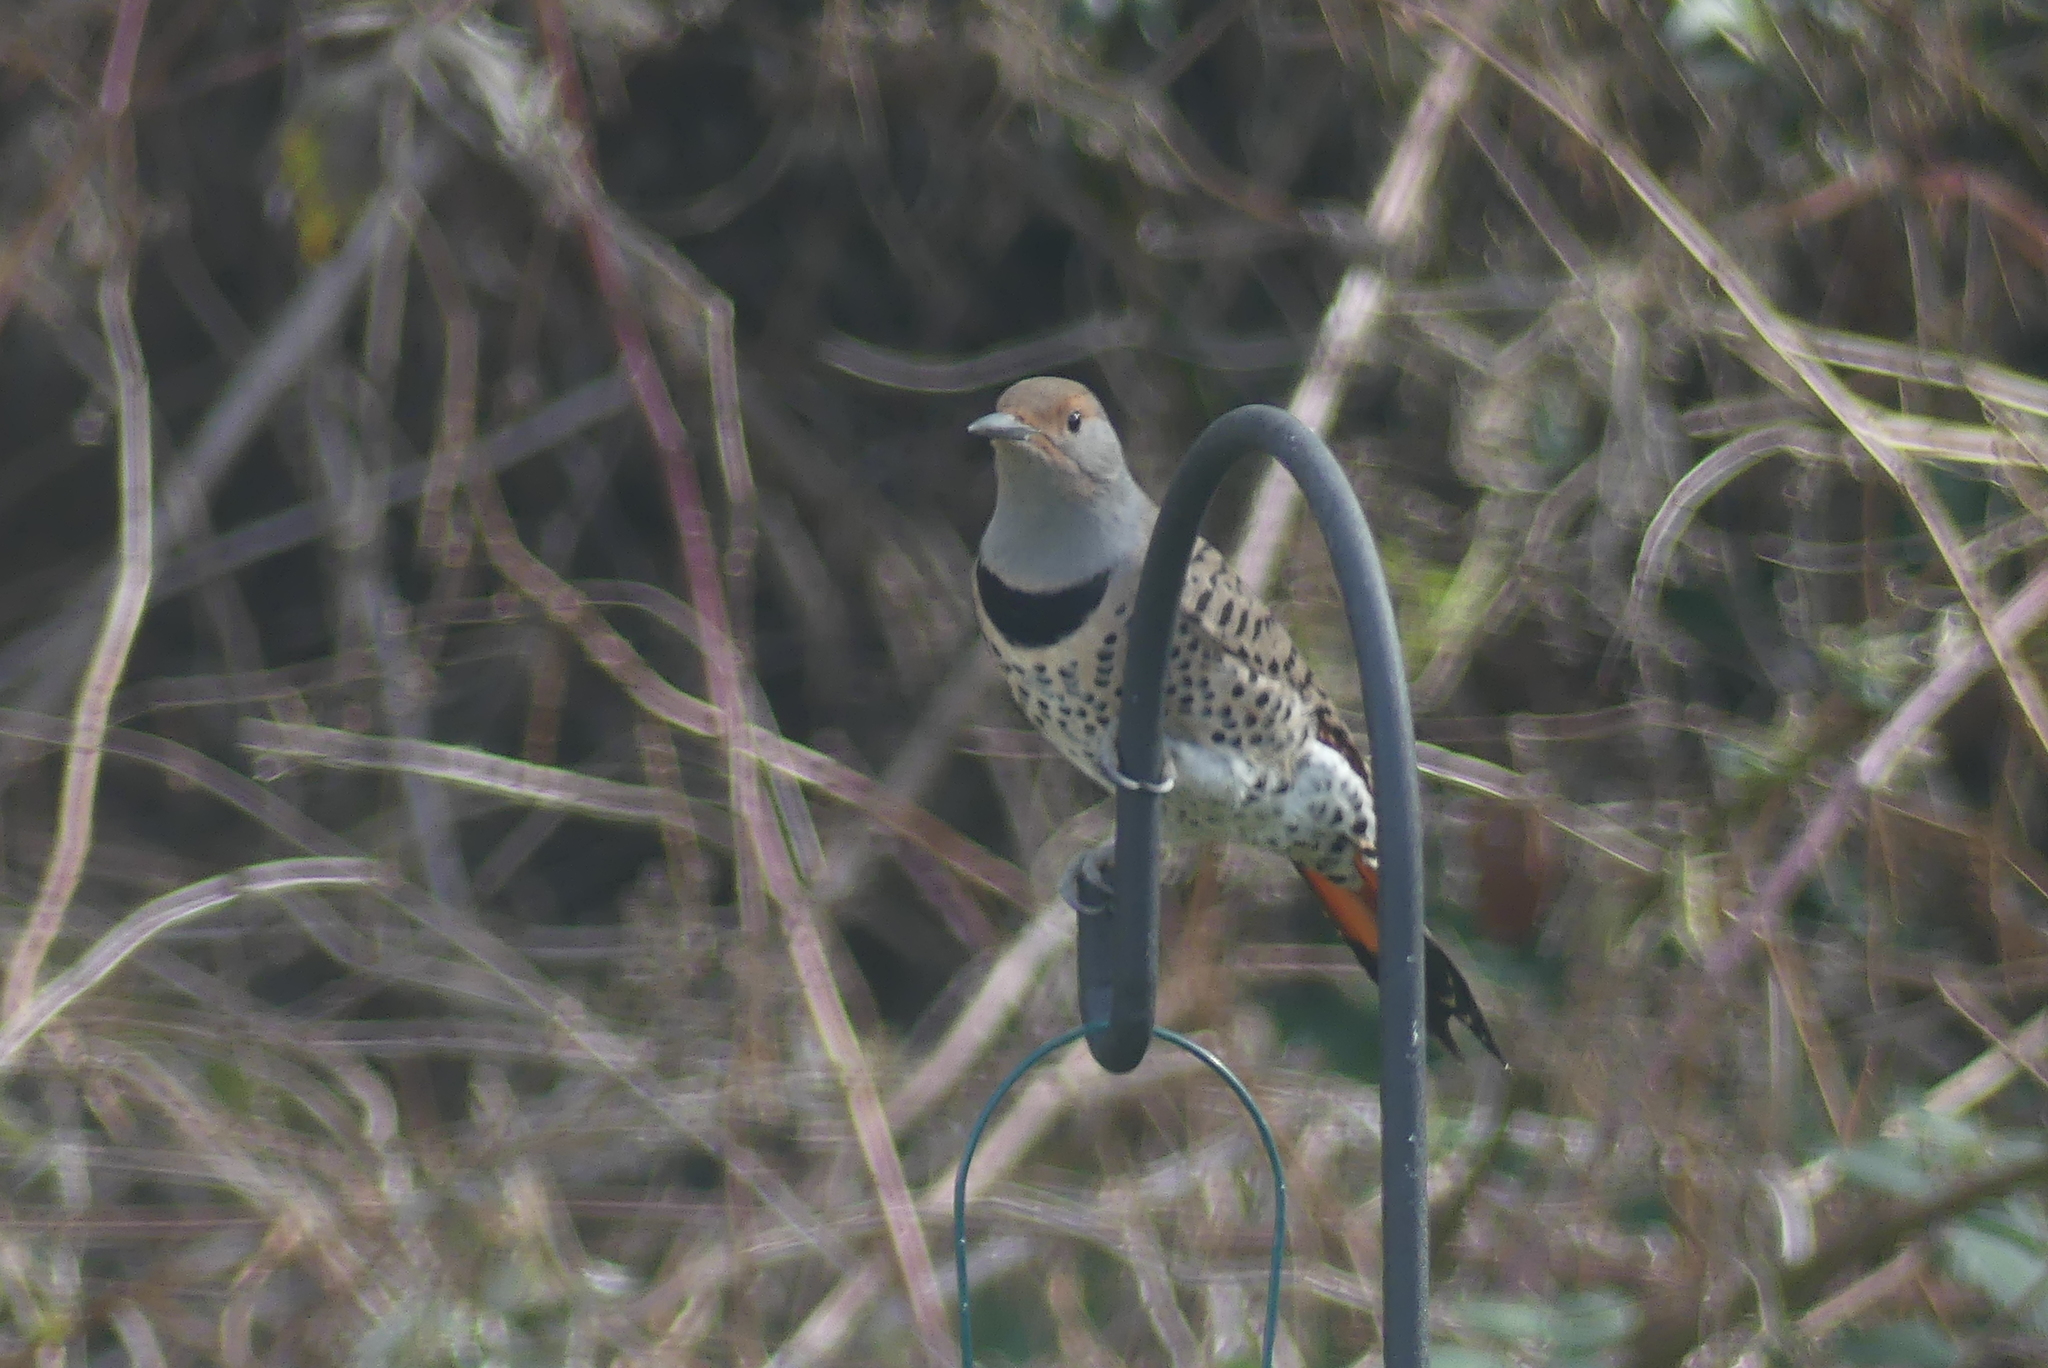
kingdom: Animalia
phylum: Chordata
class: Aves
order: Piciformes
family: Picidae
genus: Colaptes
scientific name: Colaptes auratus
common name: Northern flicker
